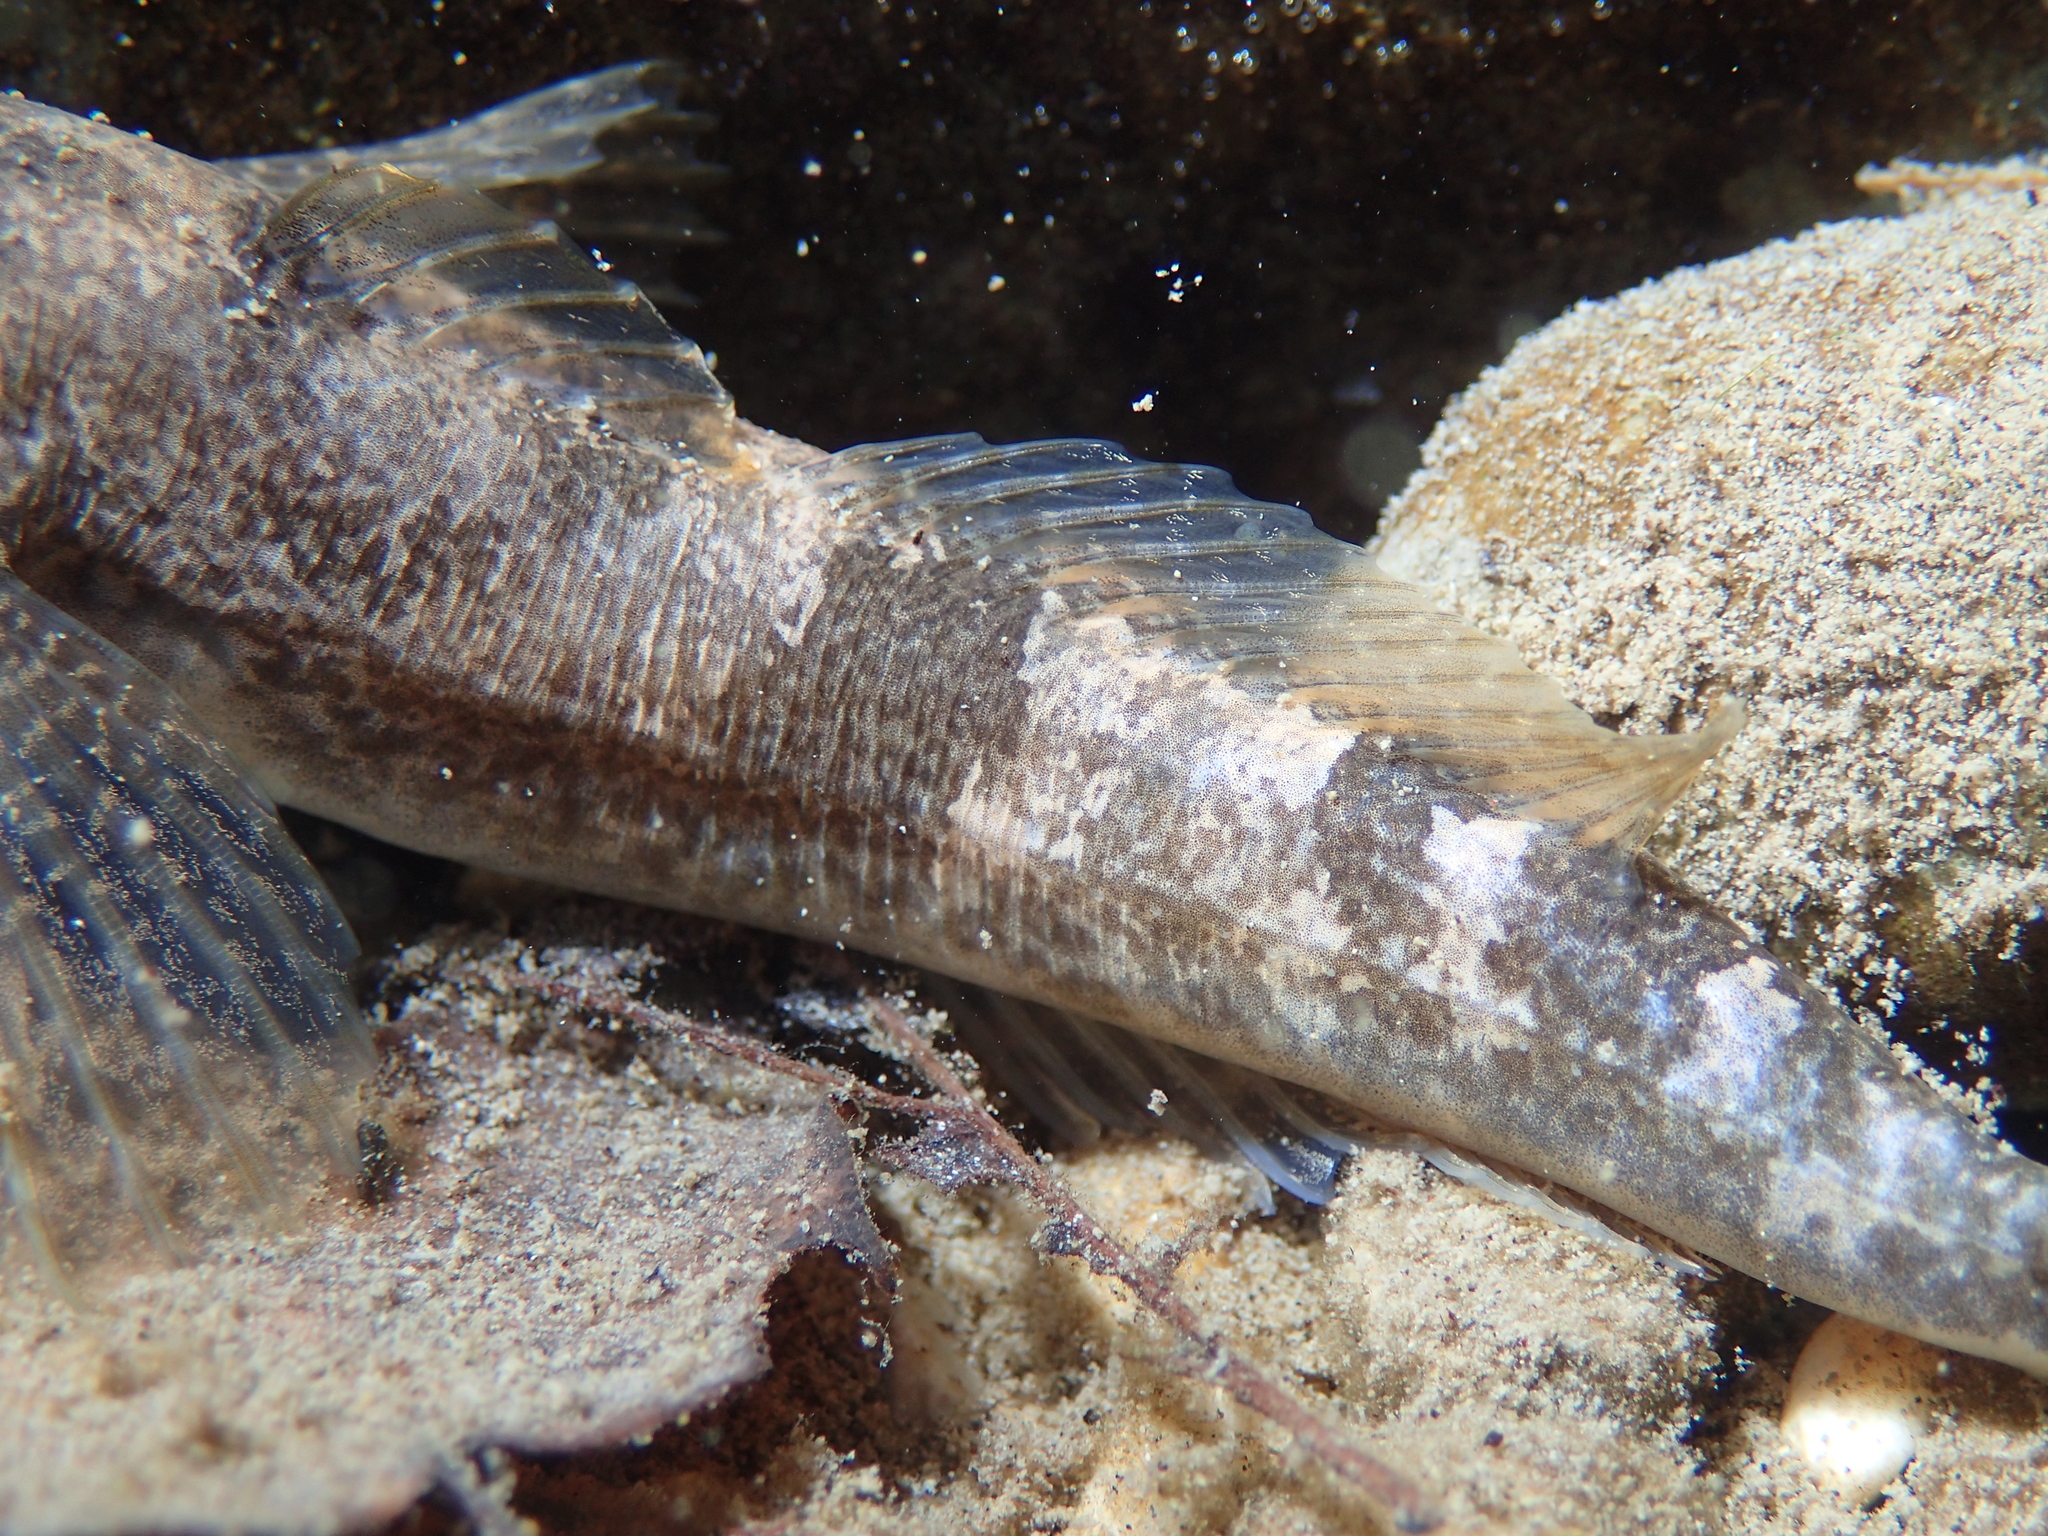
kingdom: Animalia
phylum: Chordata
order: Scorpaeniformes
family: Cottidae
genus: Cottus
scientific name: Cottus sabaudicus
